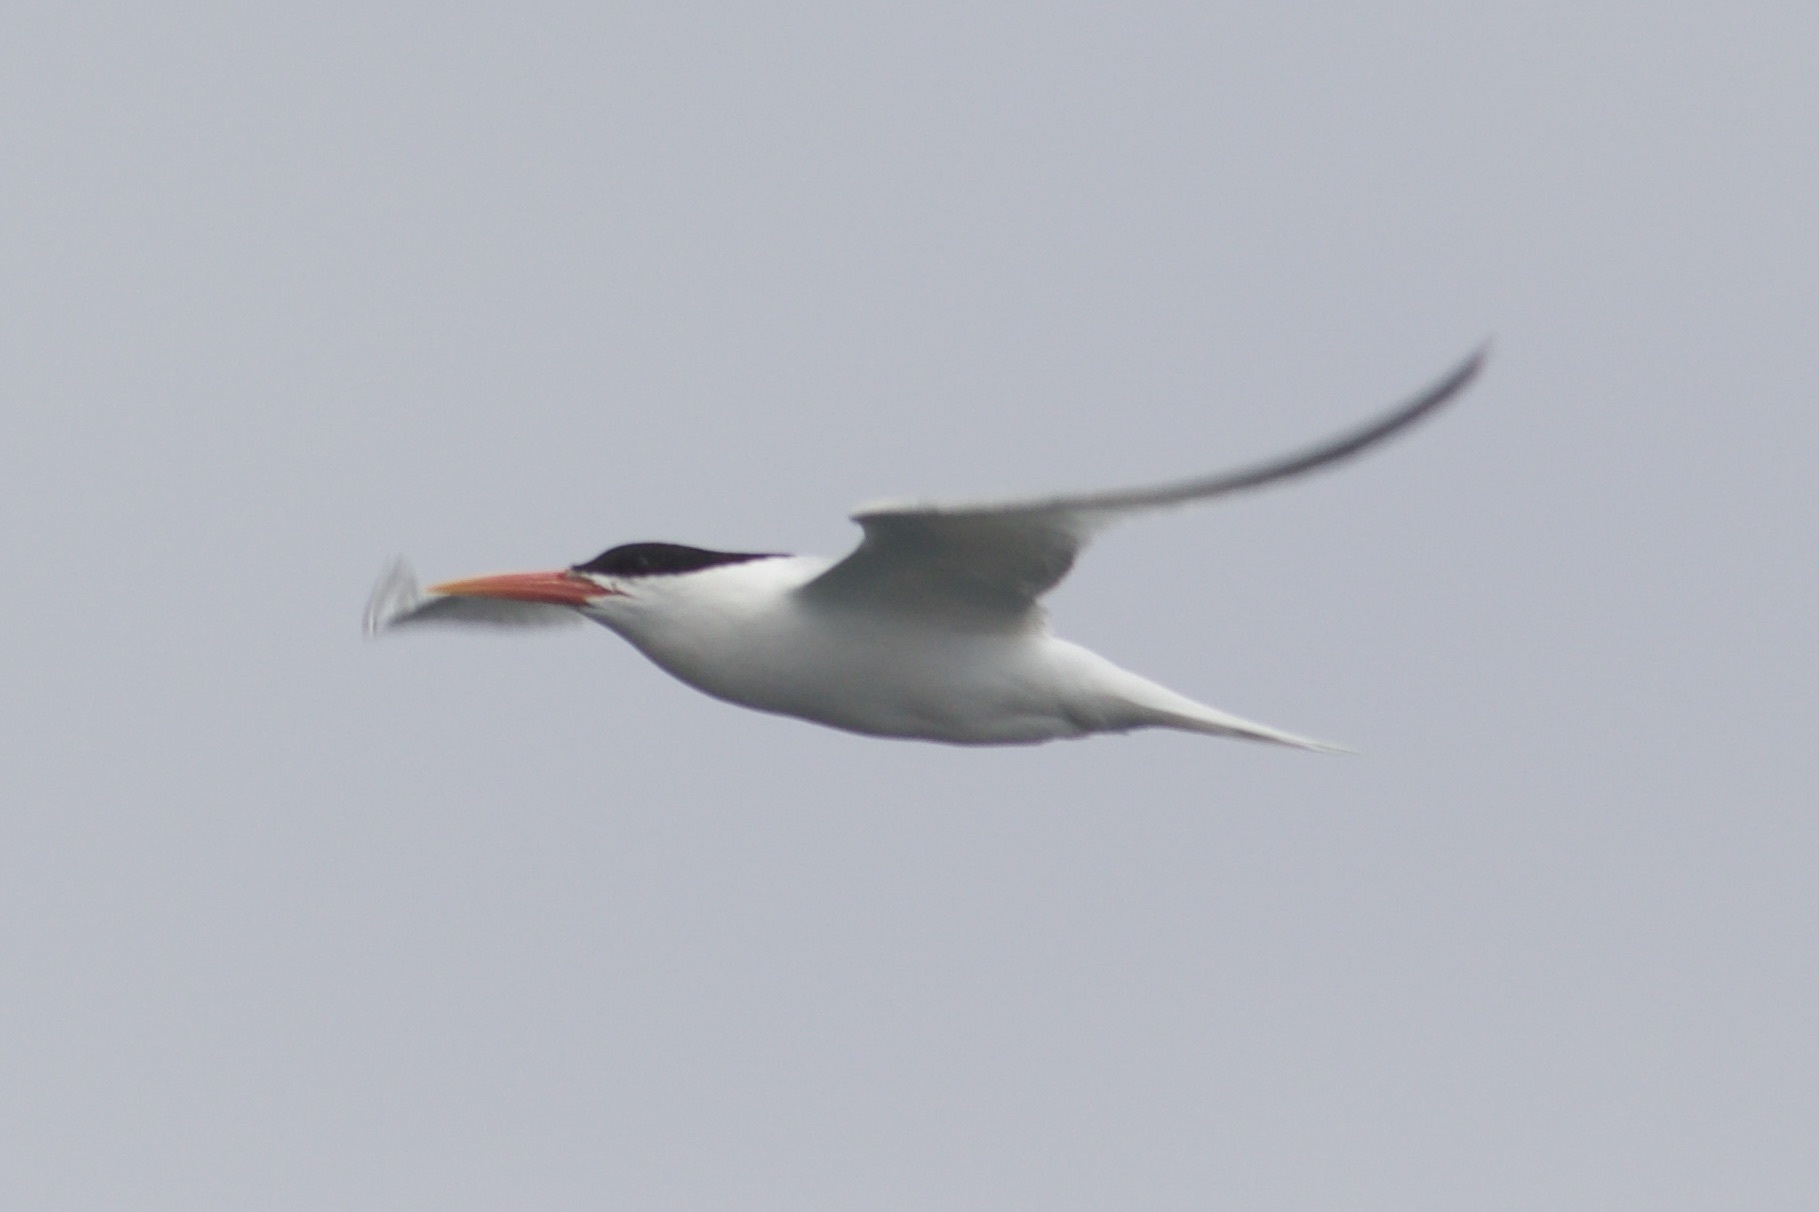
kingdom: Animalia
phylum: Chordata
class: Aves
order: Charadriiformes
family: Laridae
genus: Thalasseus
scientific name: Thalasseus elegans
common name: Elegant tern
